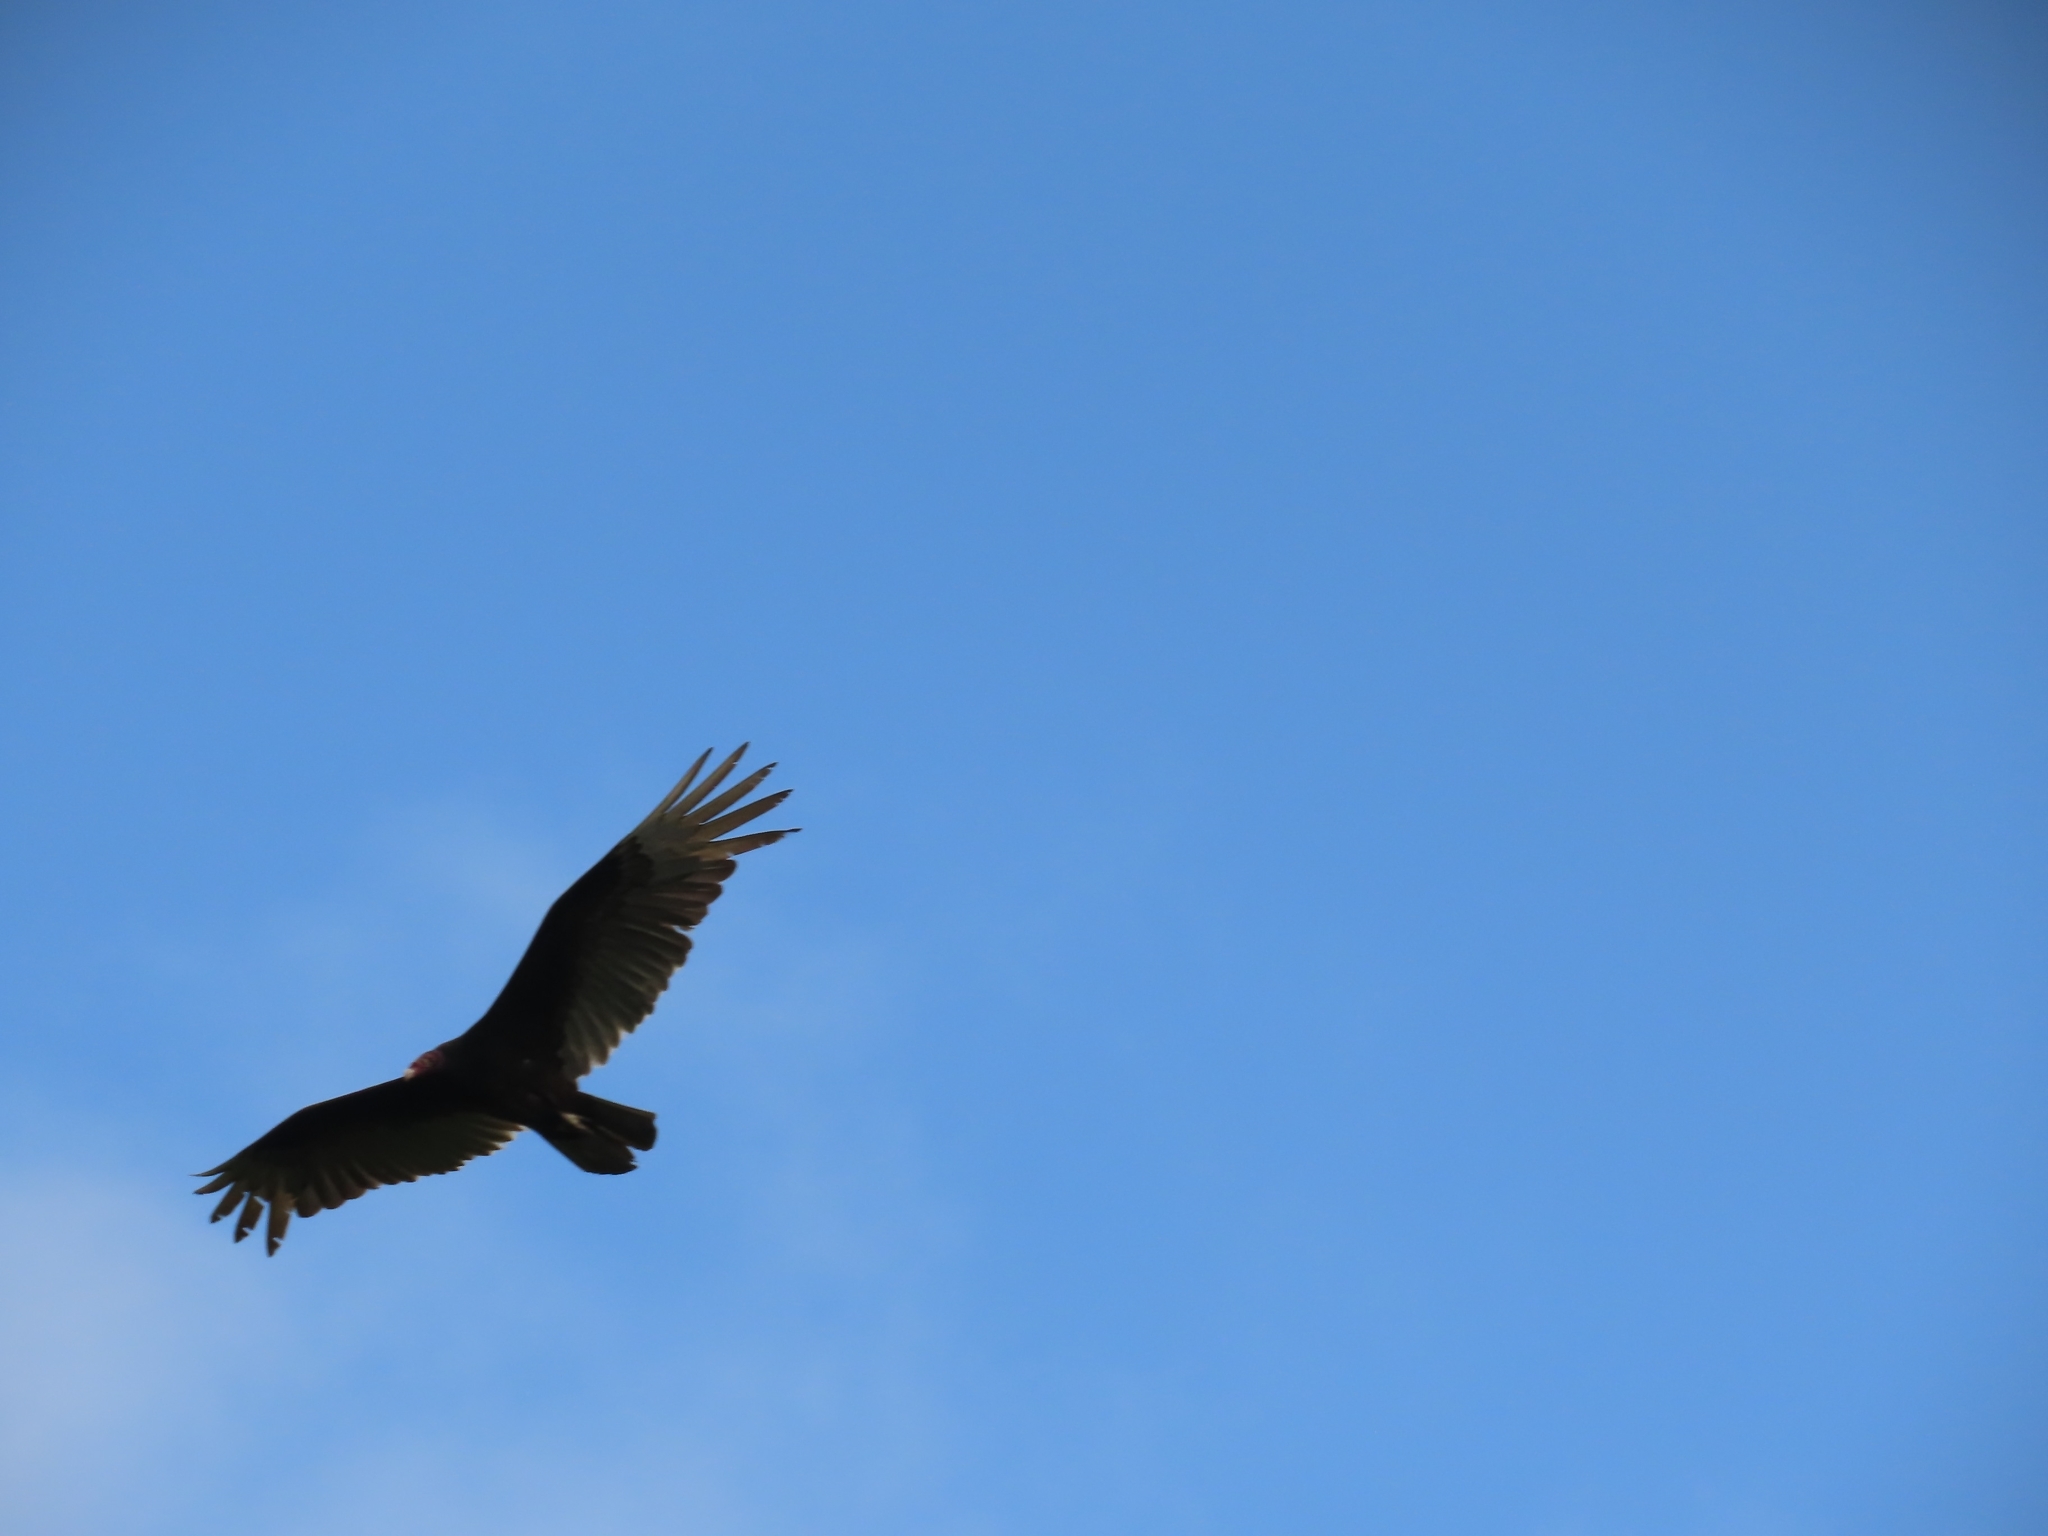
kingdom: Animalia
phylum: Chordata
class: Aves
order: Accipitriformes
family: Cathartidae
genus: Cathartes
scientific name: Cathartes aura
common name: Turkey vulture
